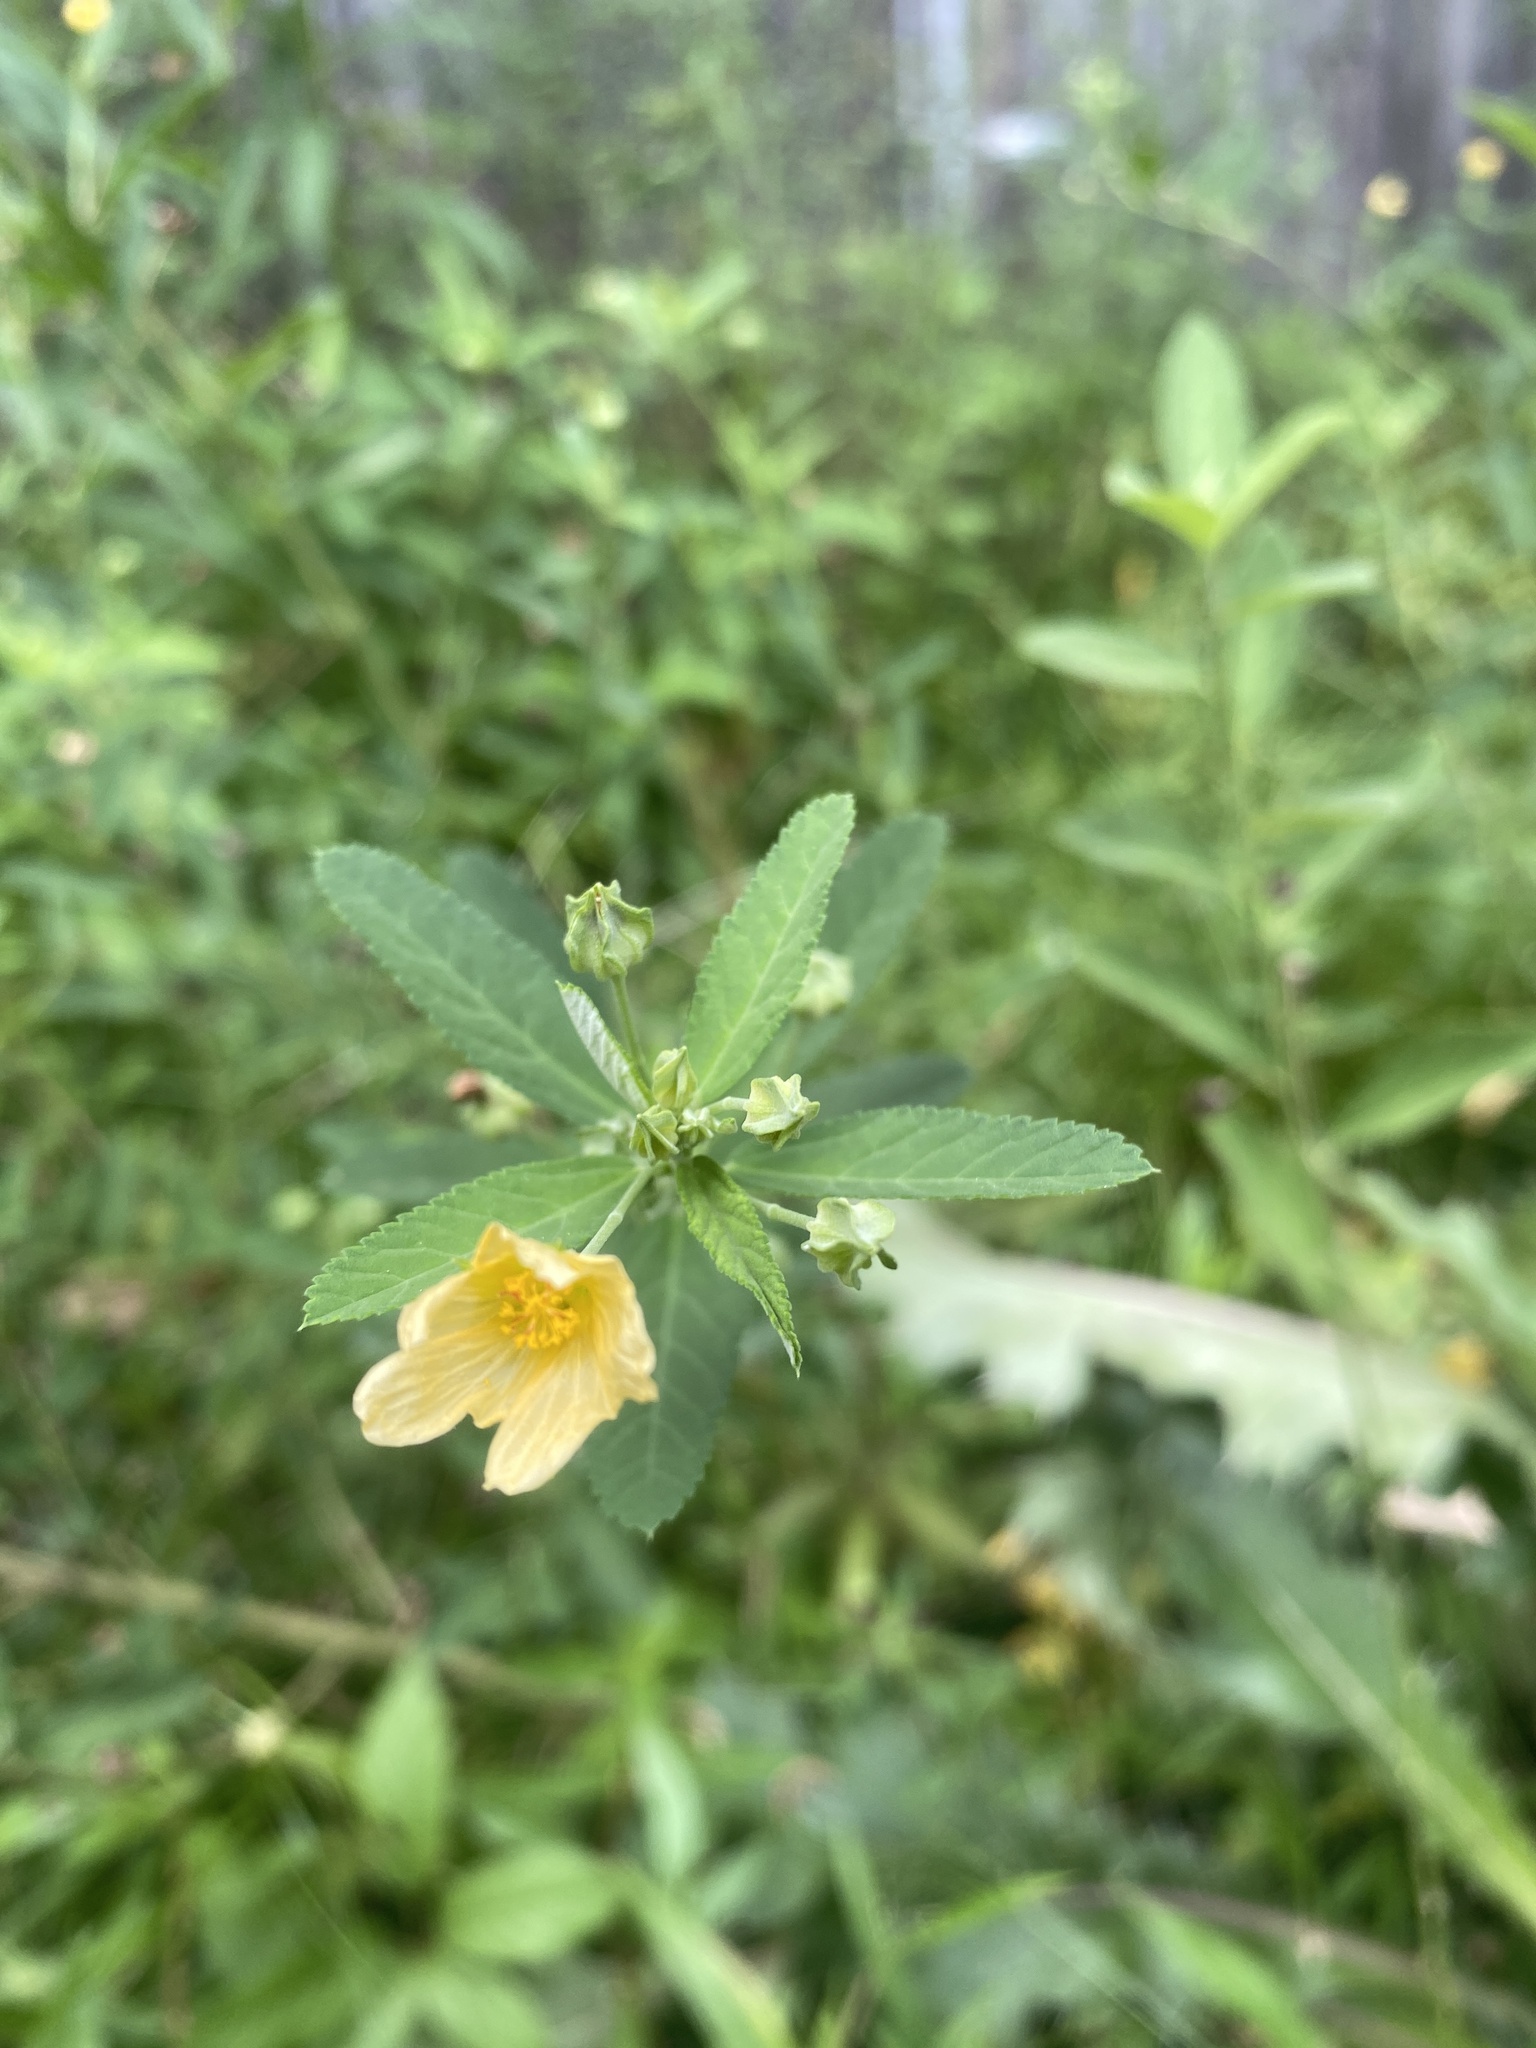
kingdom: Plantae
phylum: Tracheophyta
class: Magnoliopsida
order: Malvales
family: Malvaceae
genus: Sida
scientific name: Sida rhombifolia
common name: Queensland-hemp
